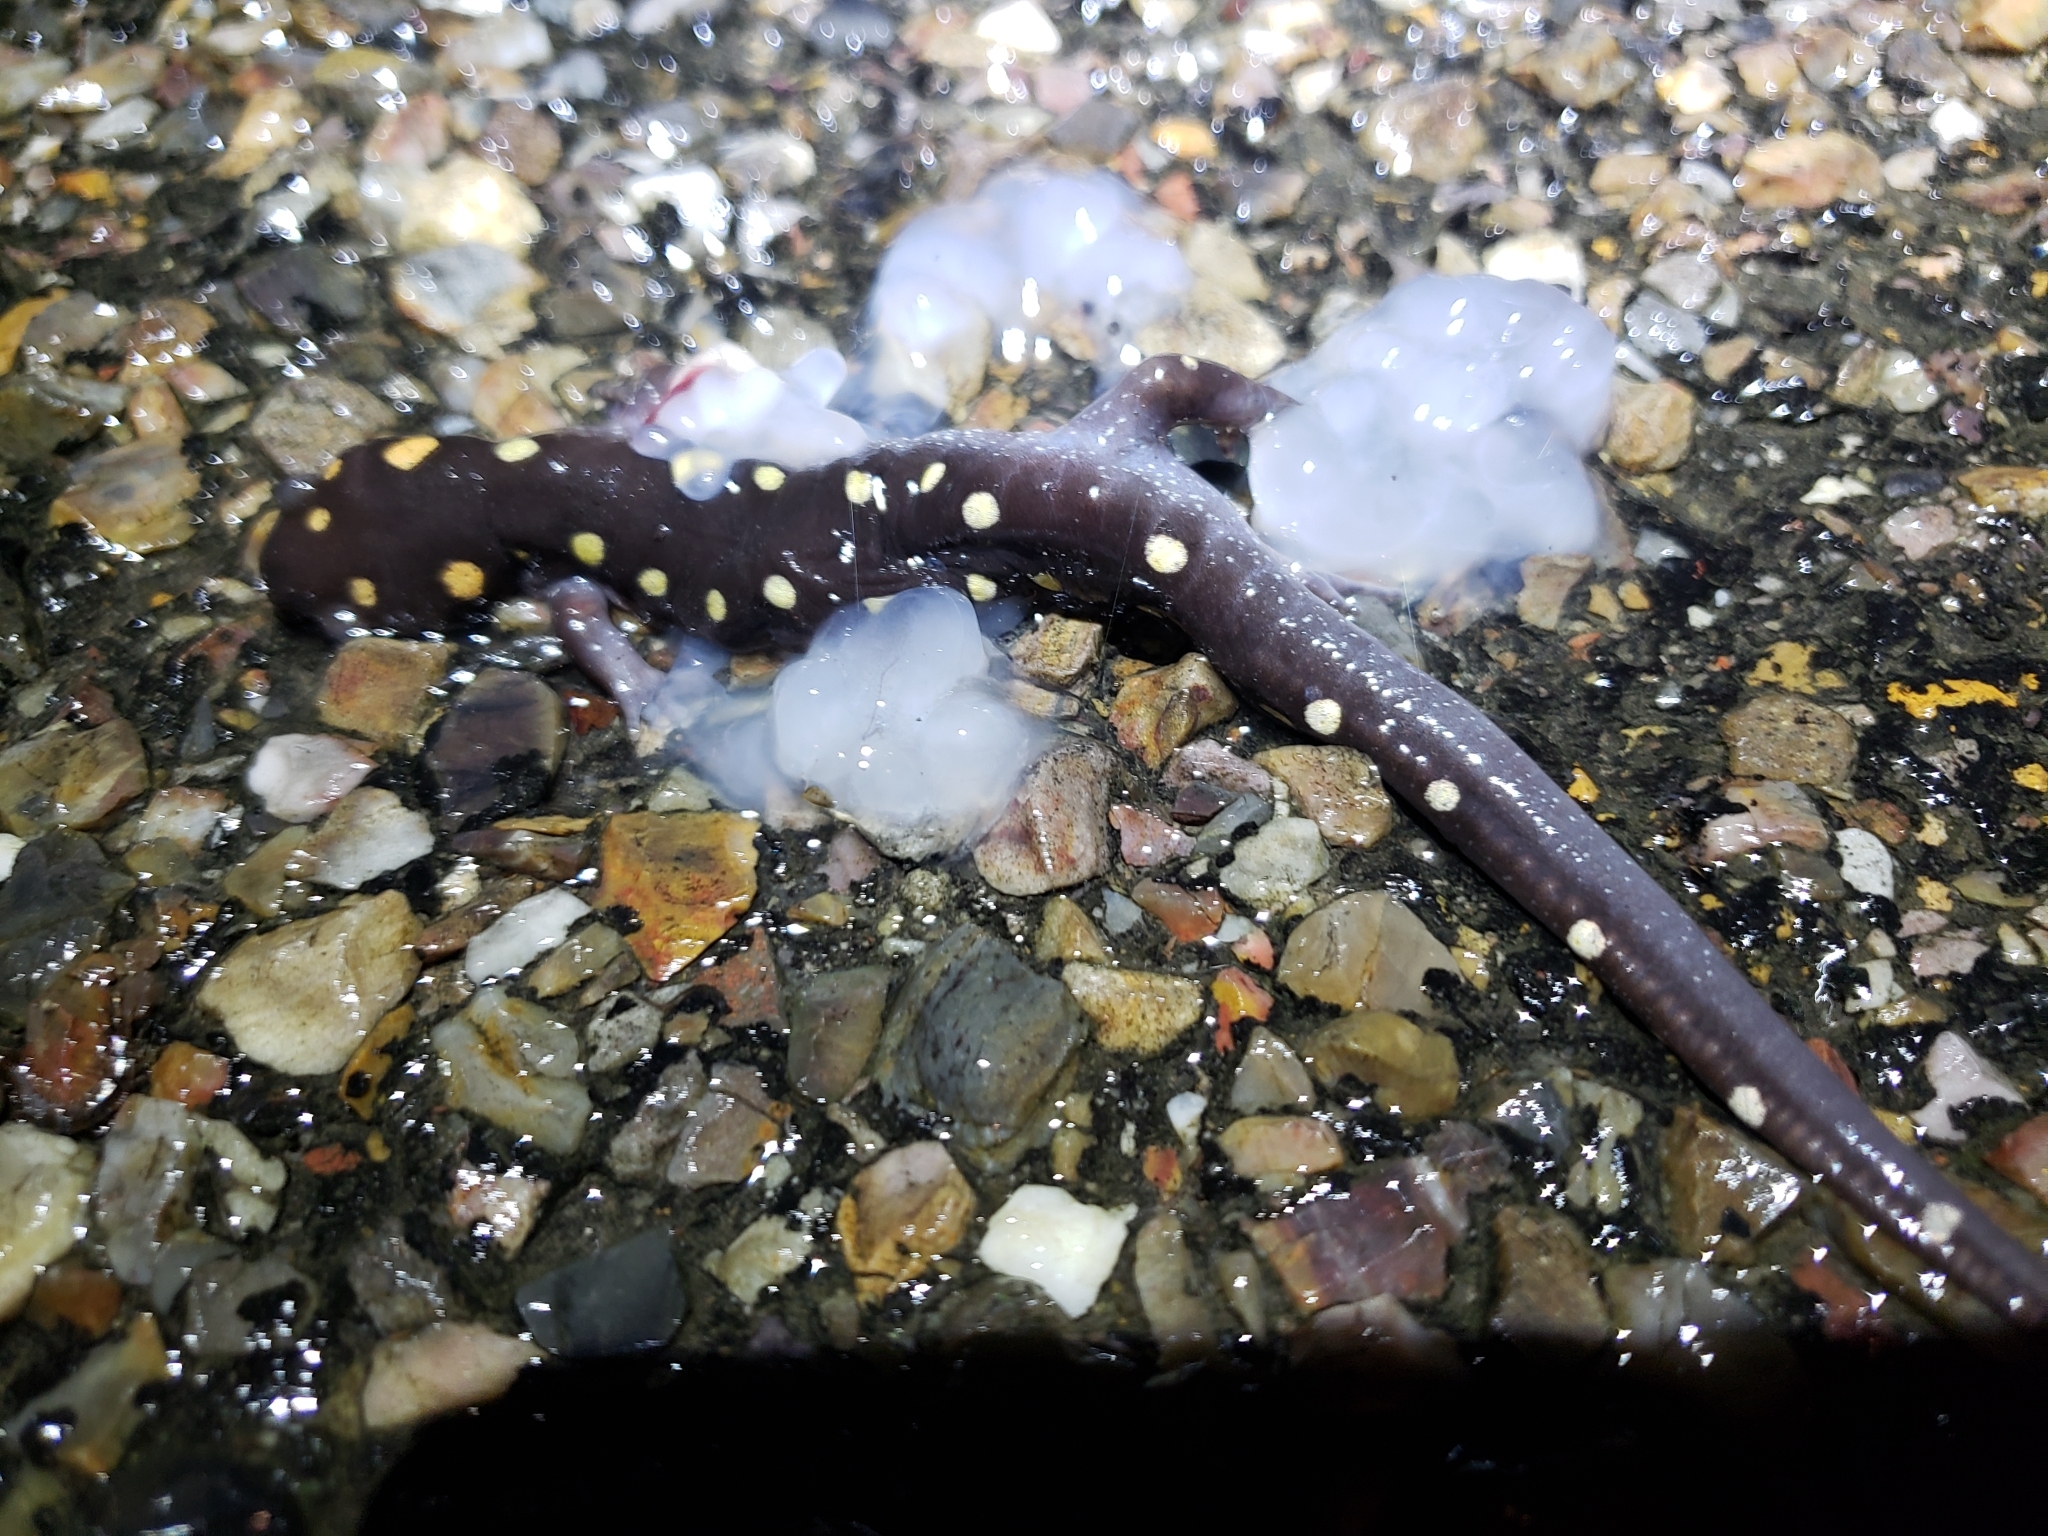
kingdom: Animalia
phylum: Chordata
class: Amphibia
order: Caudata
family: Ambystomatidae
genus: Ambystoma
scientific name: Ambystoma maculatum
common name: Spotted salamander
